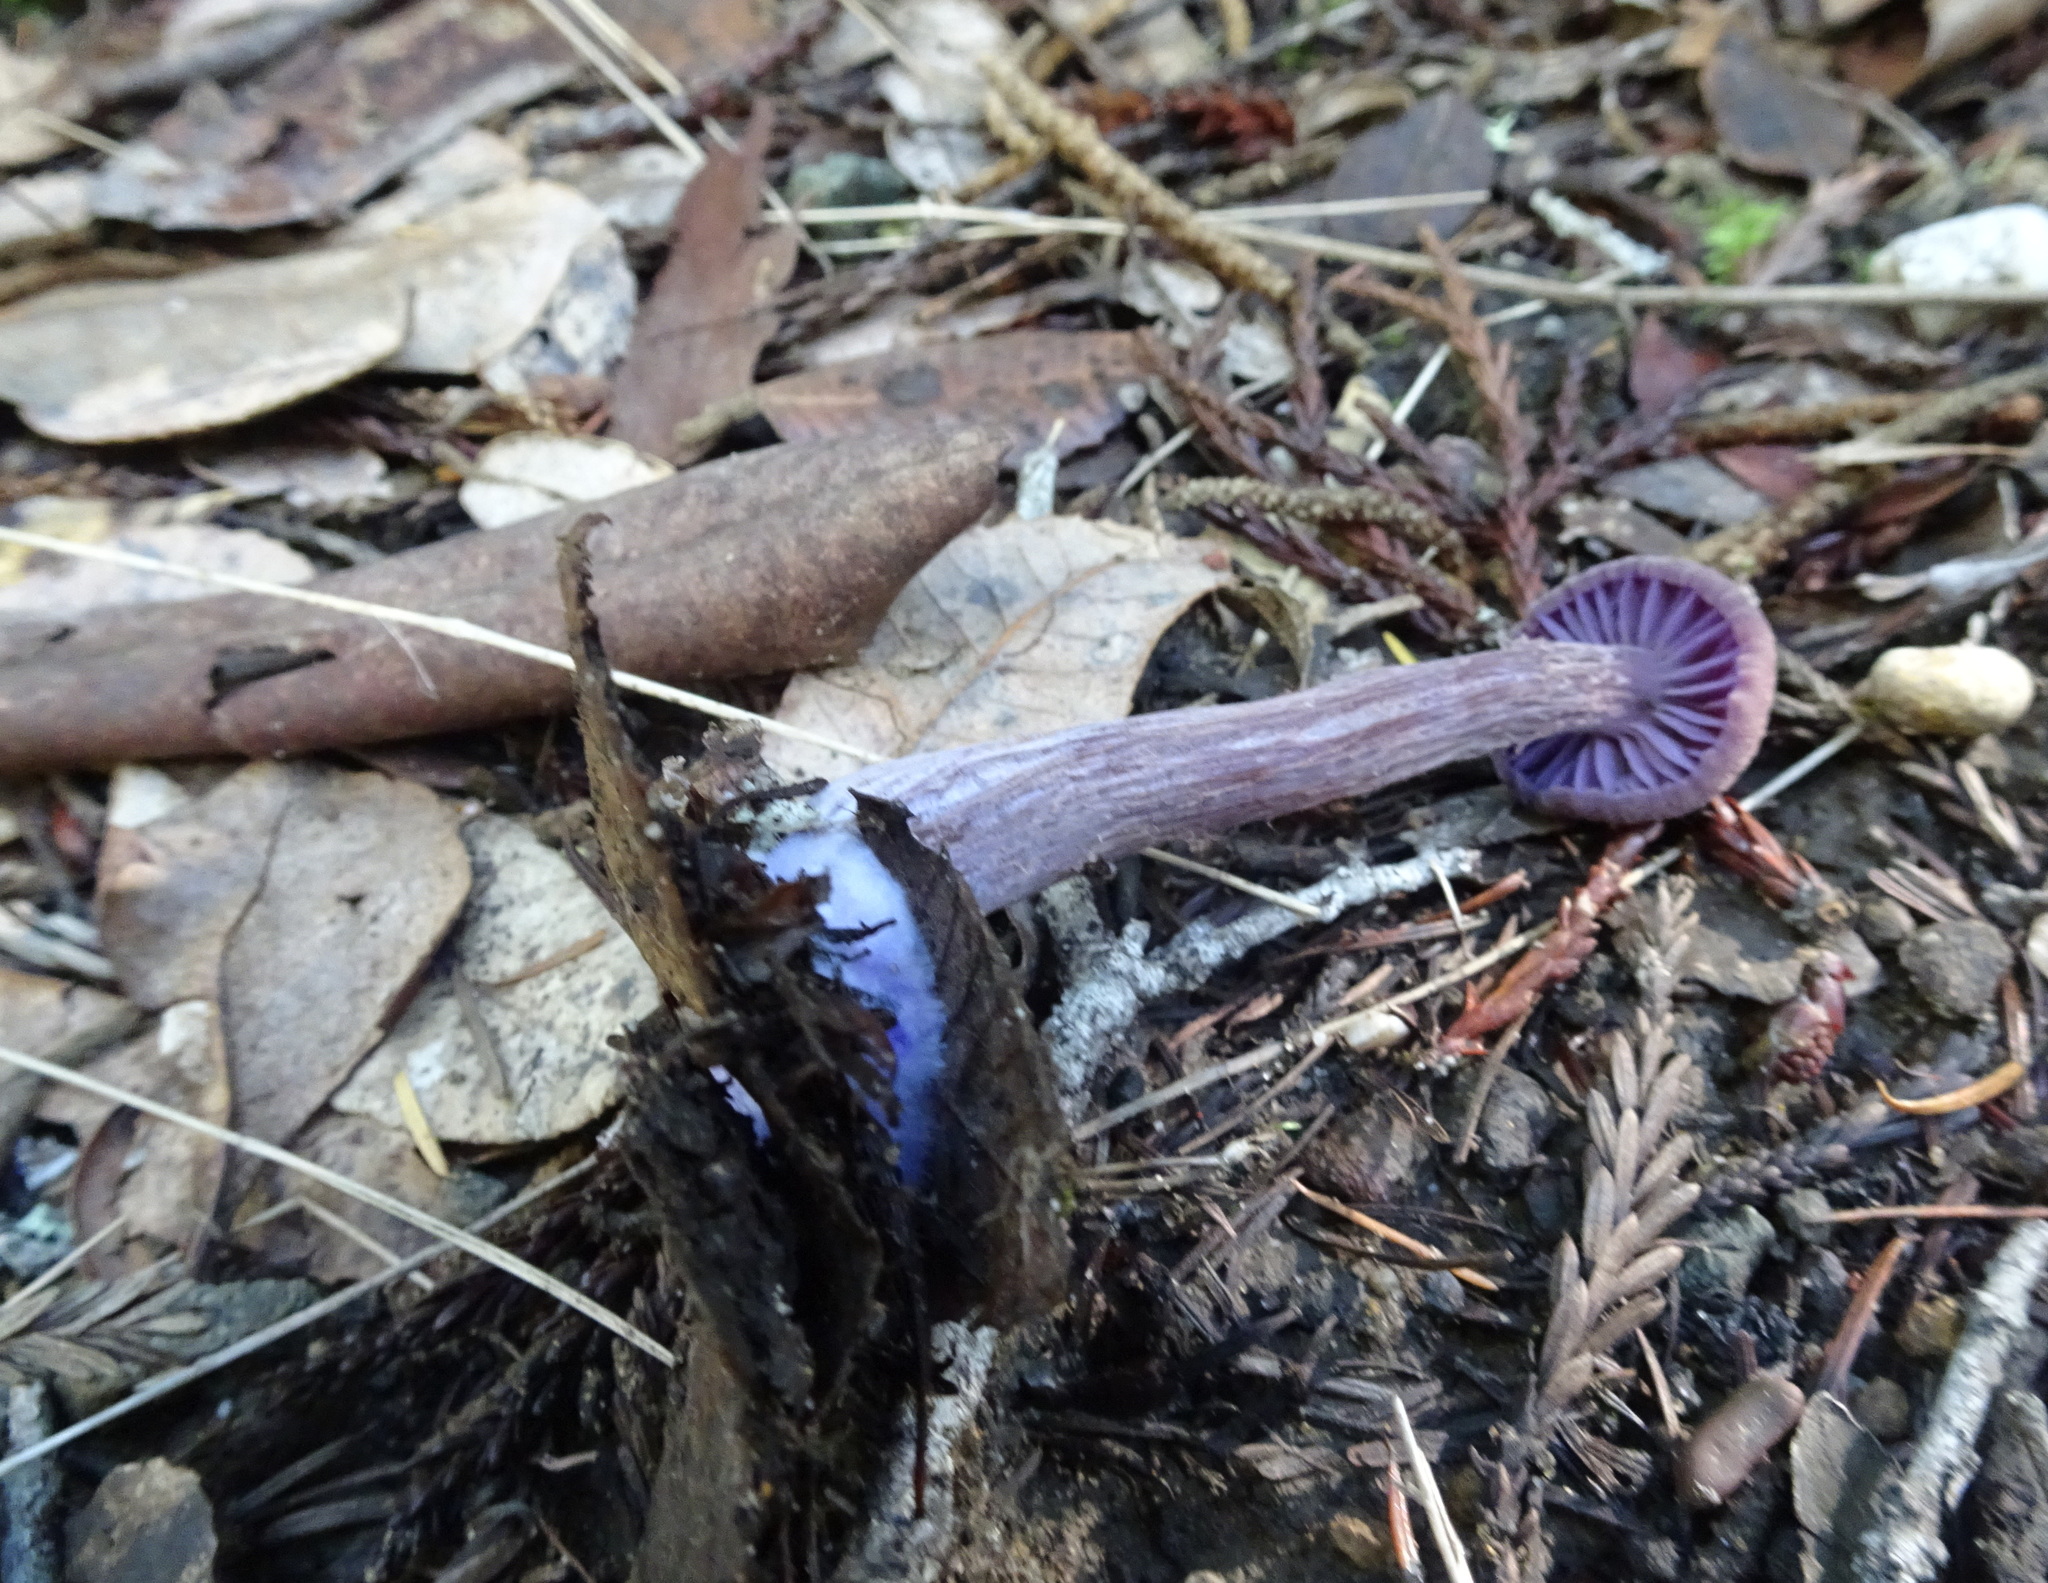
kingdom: Fungi
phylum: Basidiomycota
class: Agaricomycetes
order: Agaricales
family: Hydnangiaceae
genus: Laccaria
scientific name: Laccaria amethysteo-occidentalis
